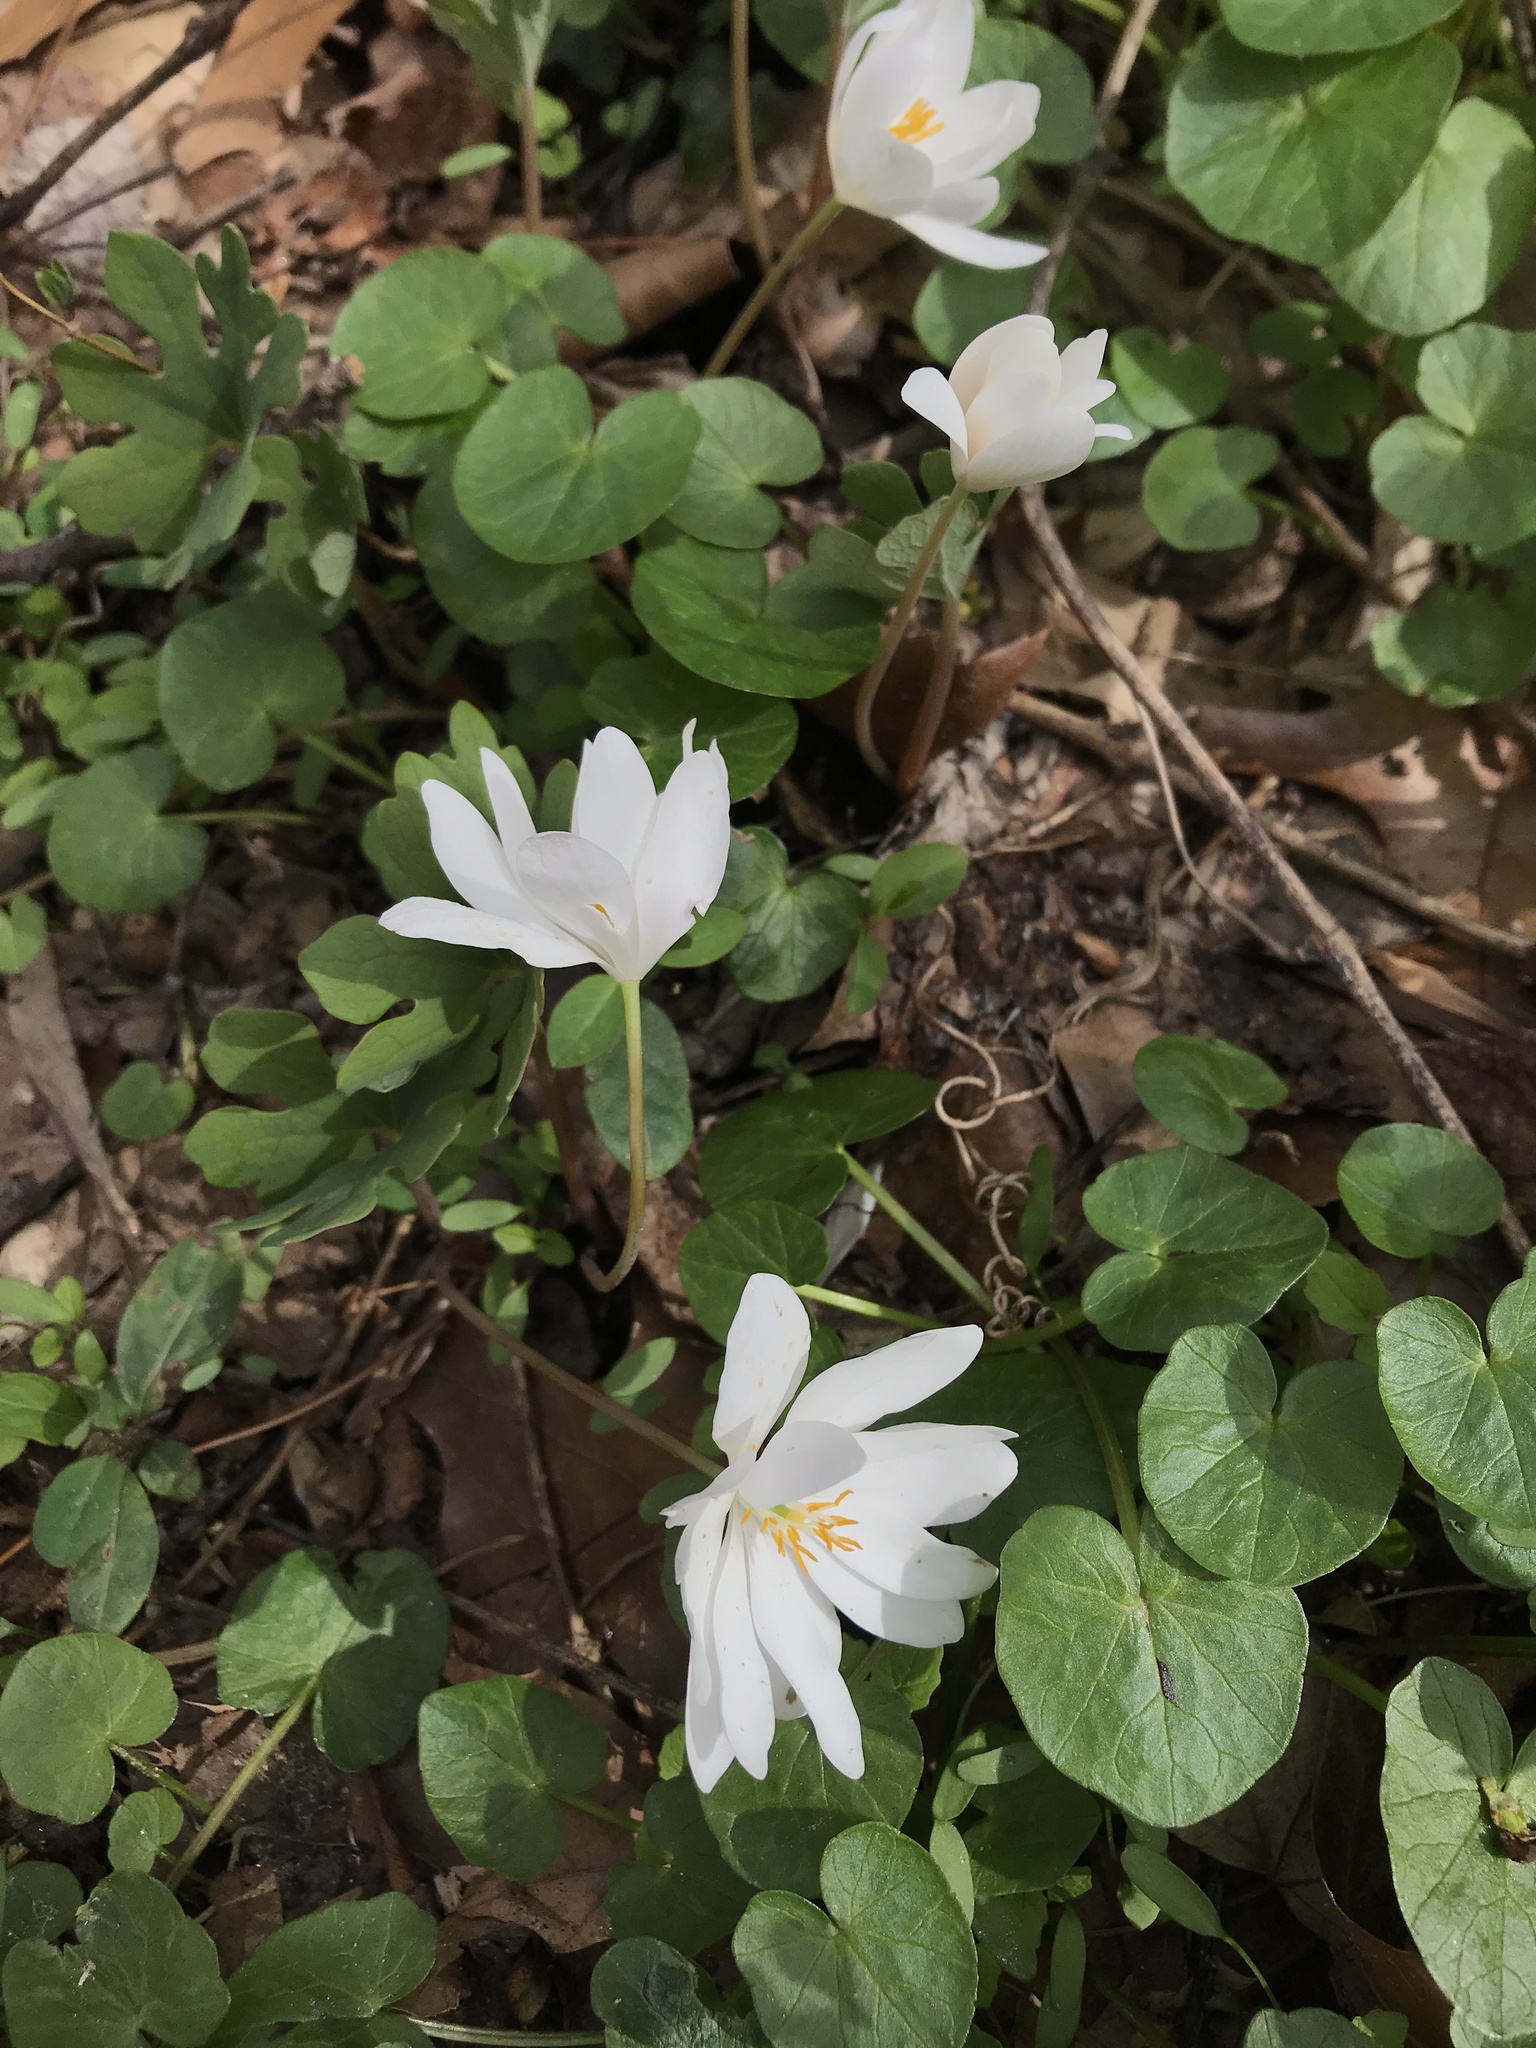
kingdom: Plantae
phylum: Tracheophyta
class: Magnoliopsida
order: Ranunculales
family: Papaveraceae
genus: Sanguinaria
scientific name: Sanguinaria canadensis
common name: Bloodroot
